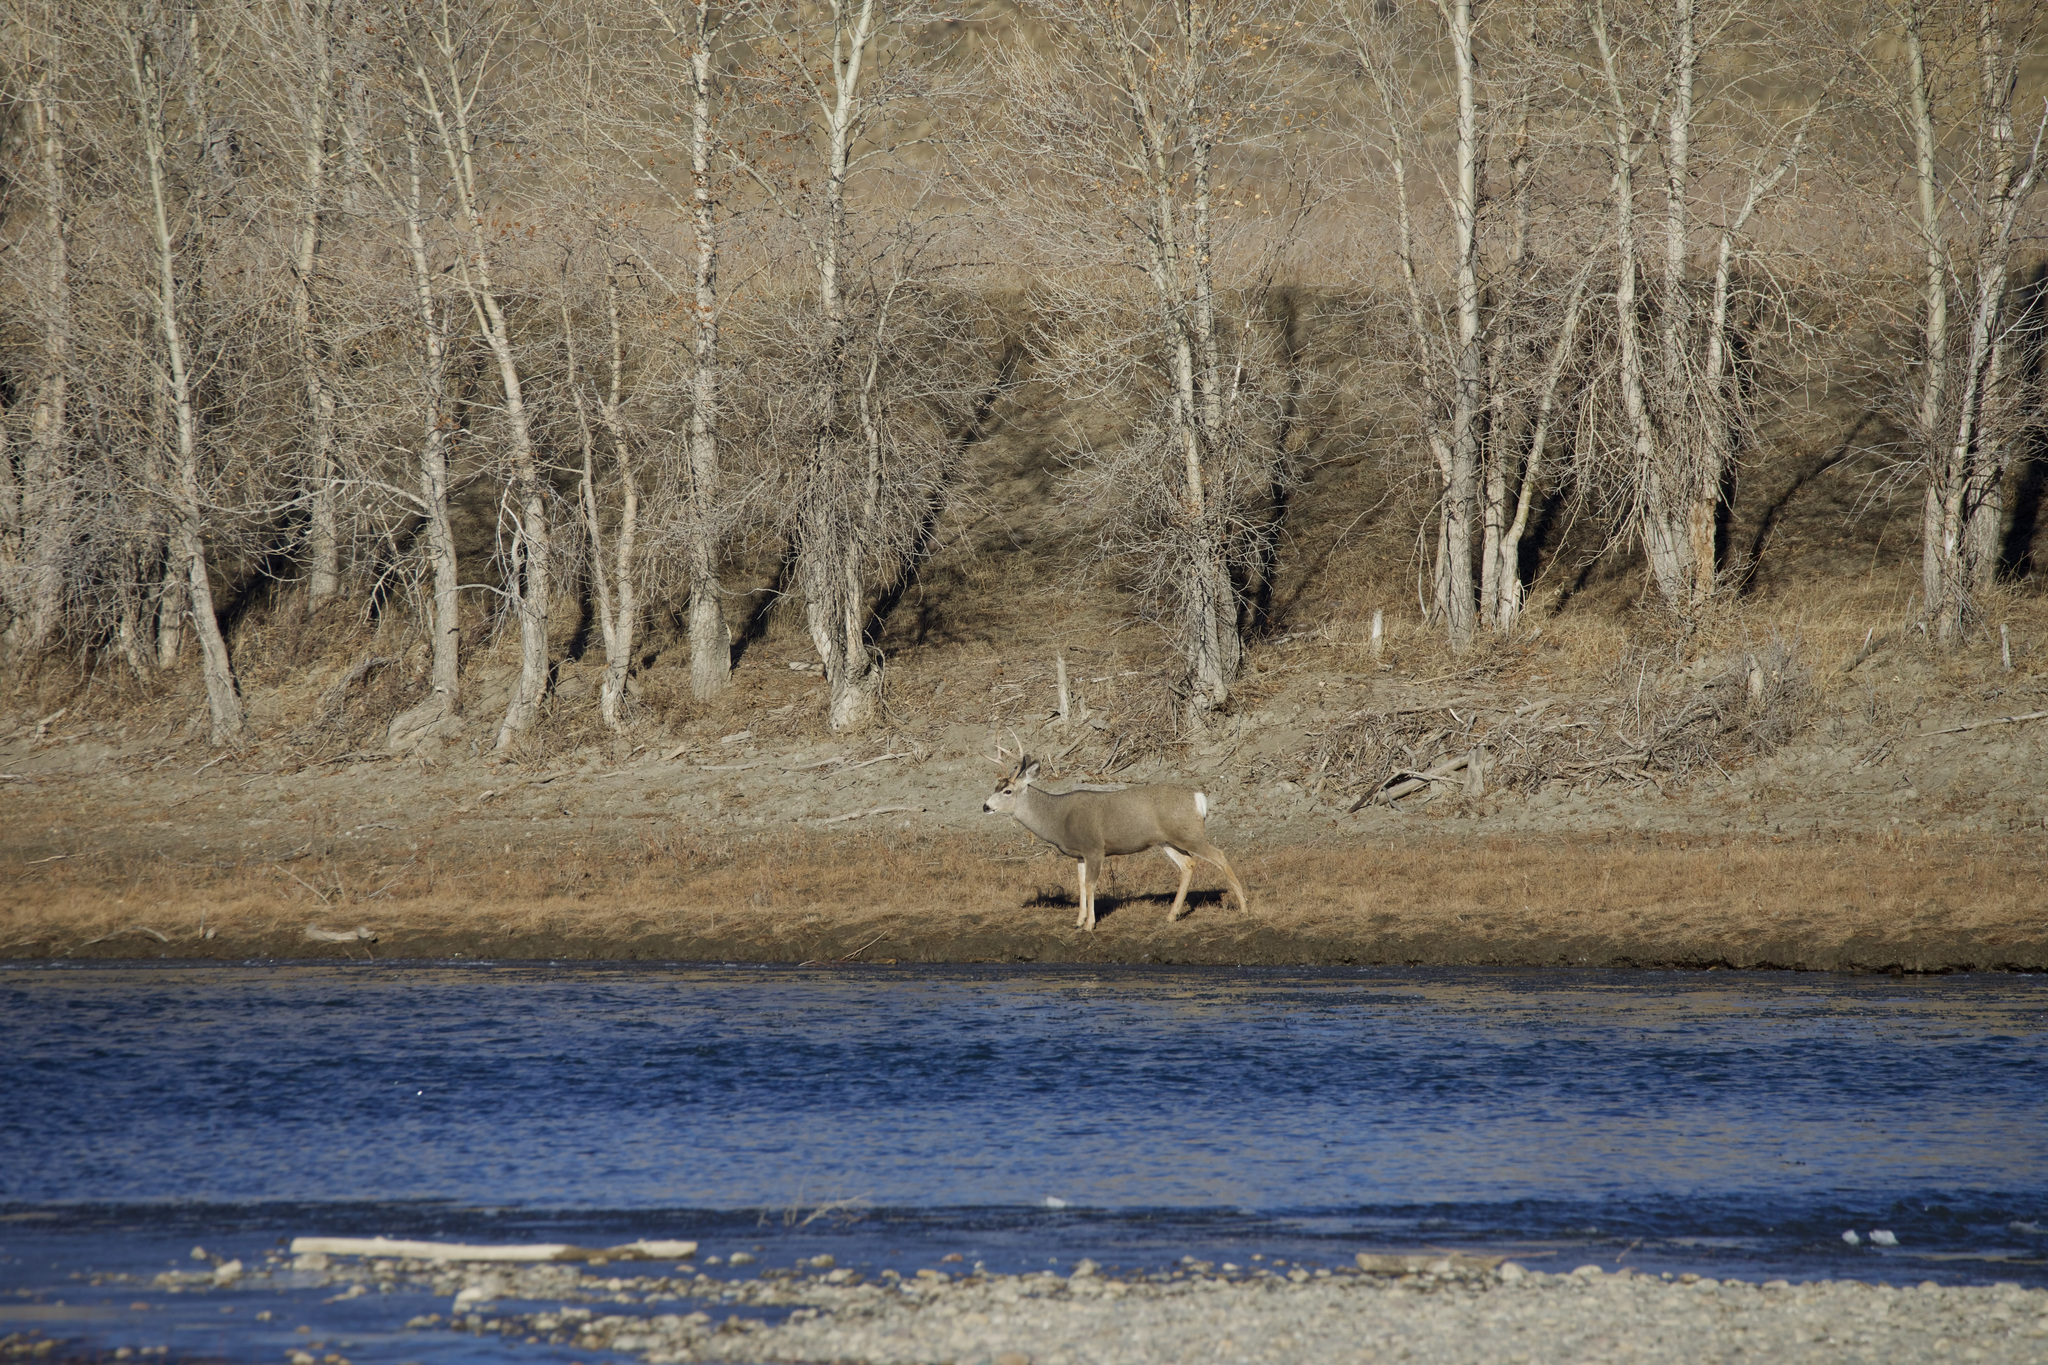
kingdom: Animalia
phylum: Chordata
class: Mammalia
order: Artiodactyla
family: Cervidae
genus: Odocoileus
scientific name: Odocoileus hemionus
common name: Mule deer
